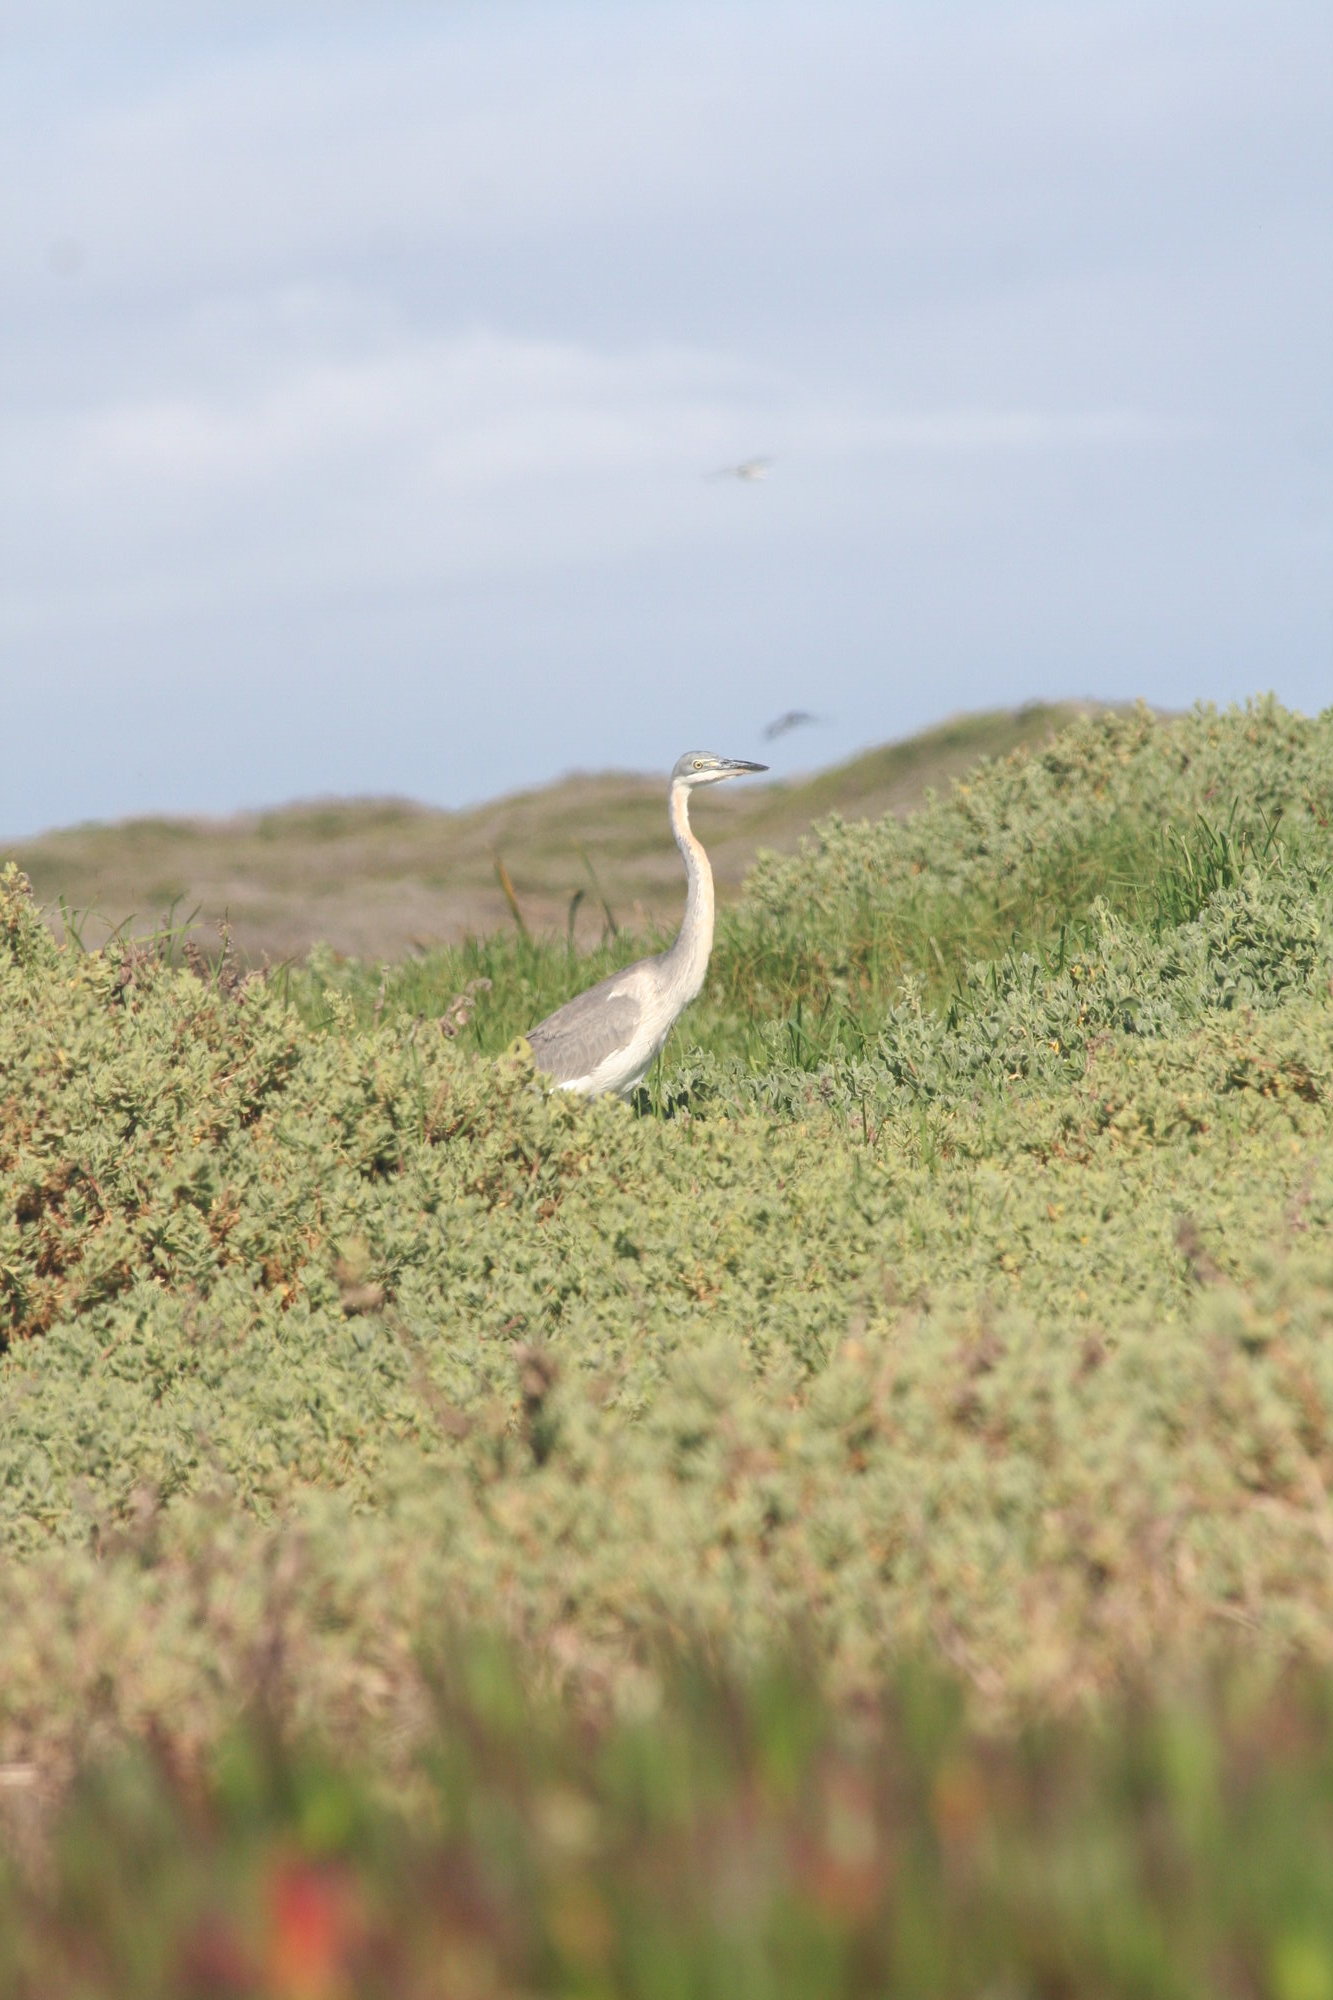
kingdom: Animalia
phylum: Chordata
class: Aves
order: Pelecaniformes
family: Ardeidae
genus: Ardea
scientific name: Ardea melanocephala
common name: Black-headed heron
